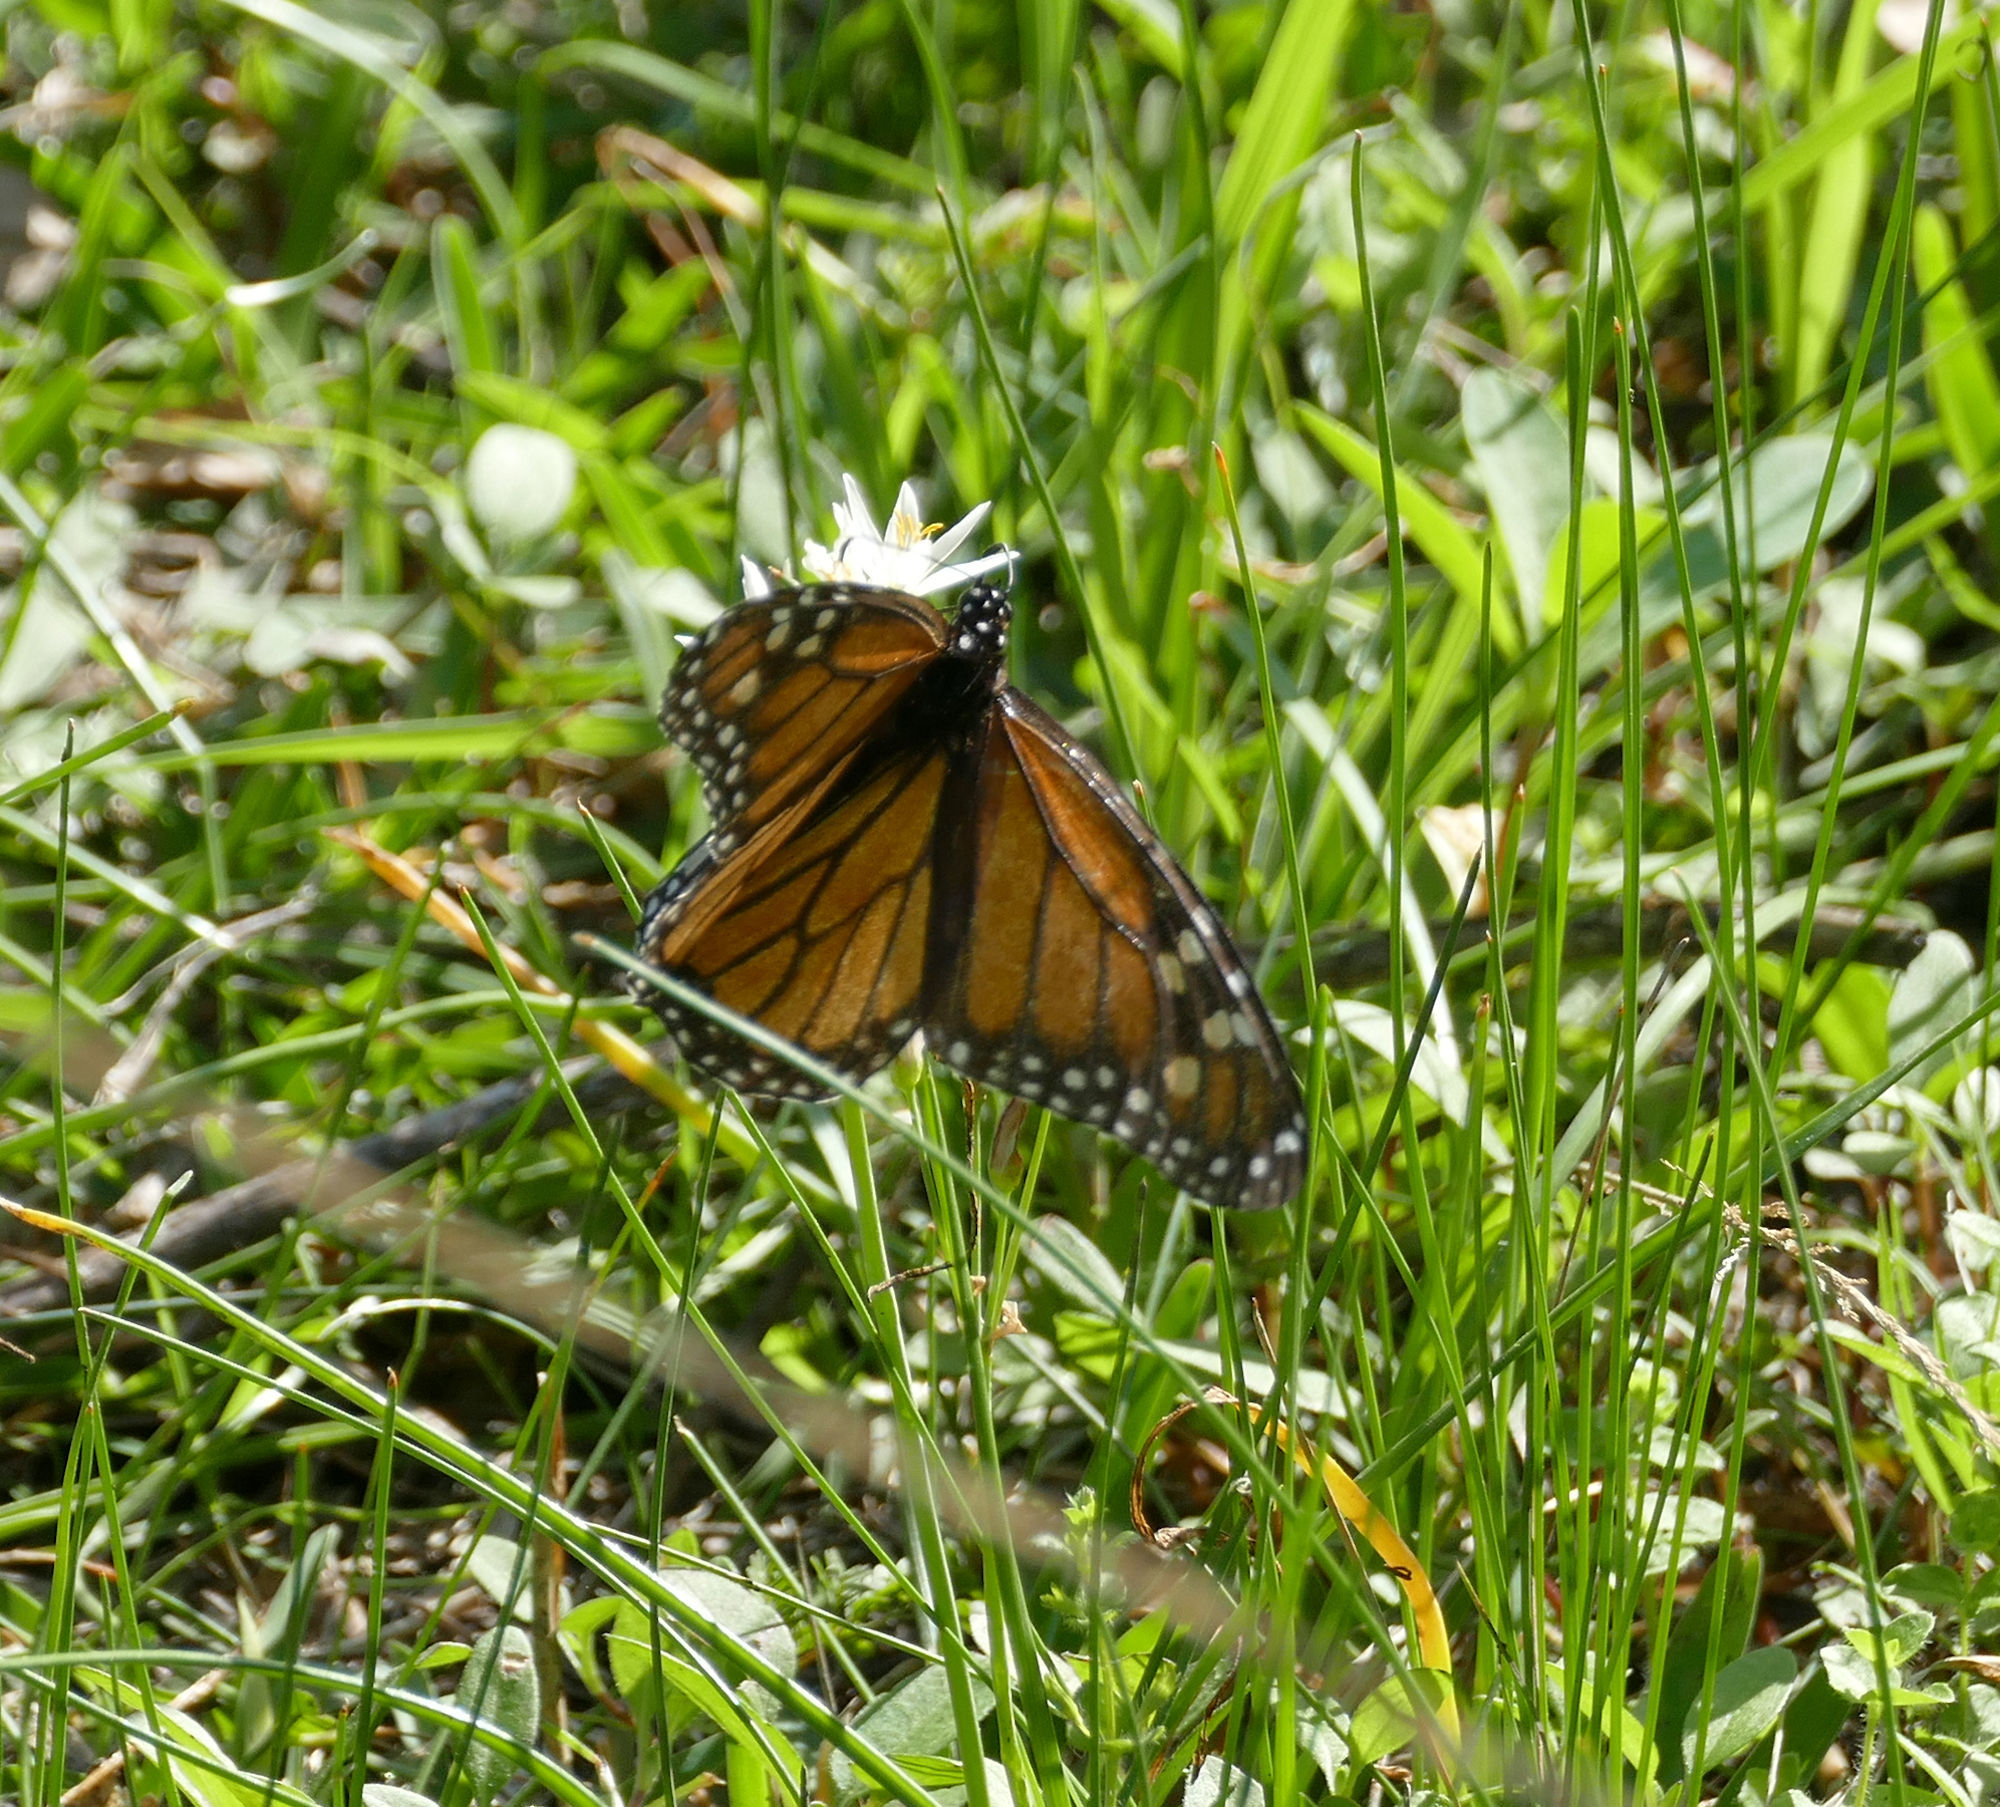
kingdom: Animalia
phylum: Arthropoda
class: Insecta
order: Lepidoptera
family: Nymphalidae
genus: Danaus
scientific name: Danaus plexippus
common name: Monarch
